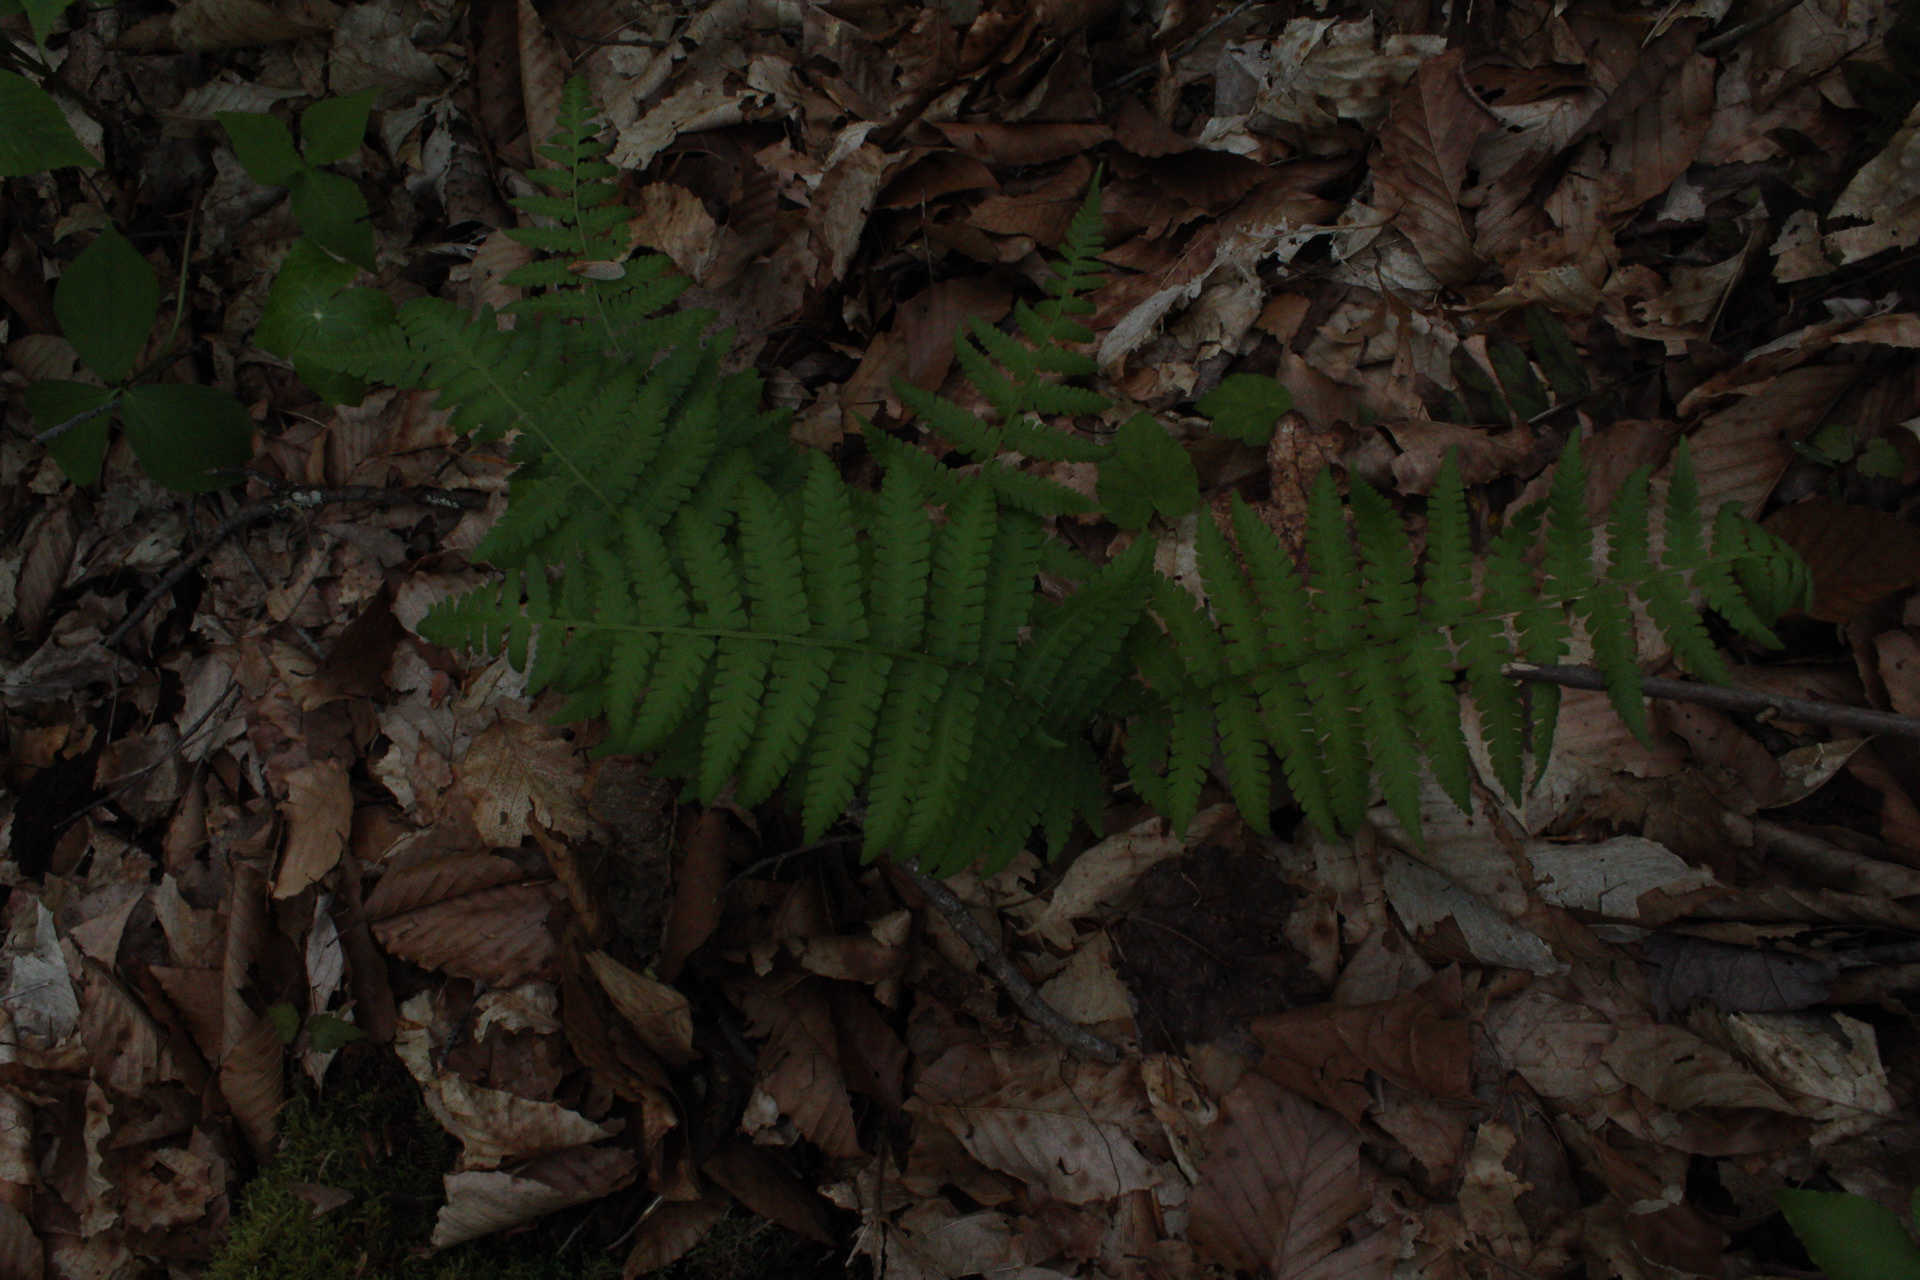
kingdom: Plantae
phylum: Tracheophyta
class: Polypodiopsida
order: Polypodiales
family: Athyriaceae
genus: Deparia
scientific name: Deparia acrostichoides
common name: Silver false spleenwort
